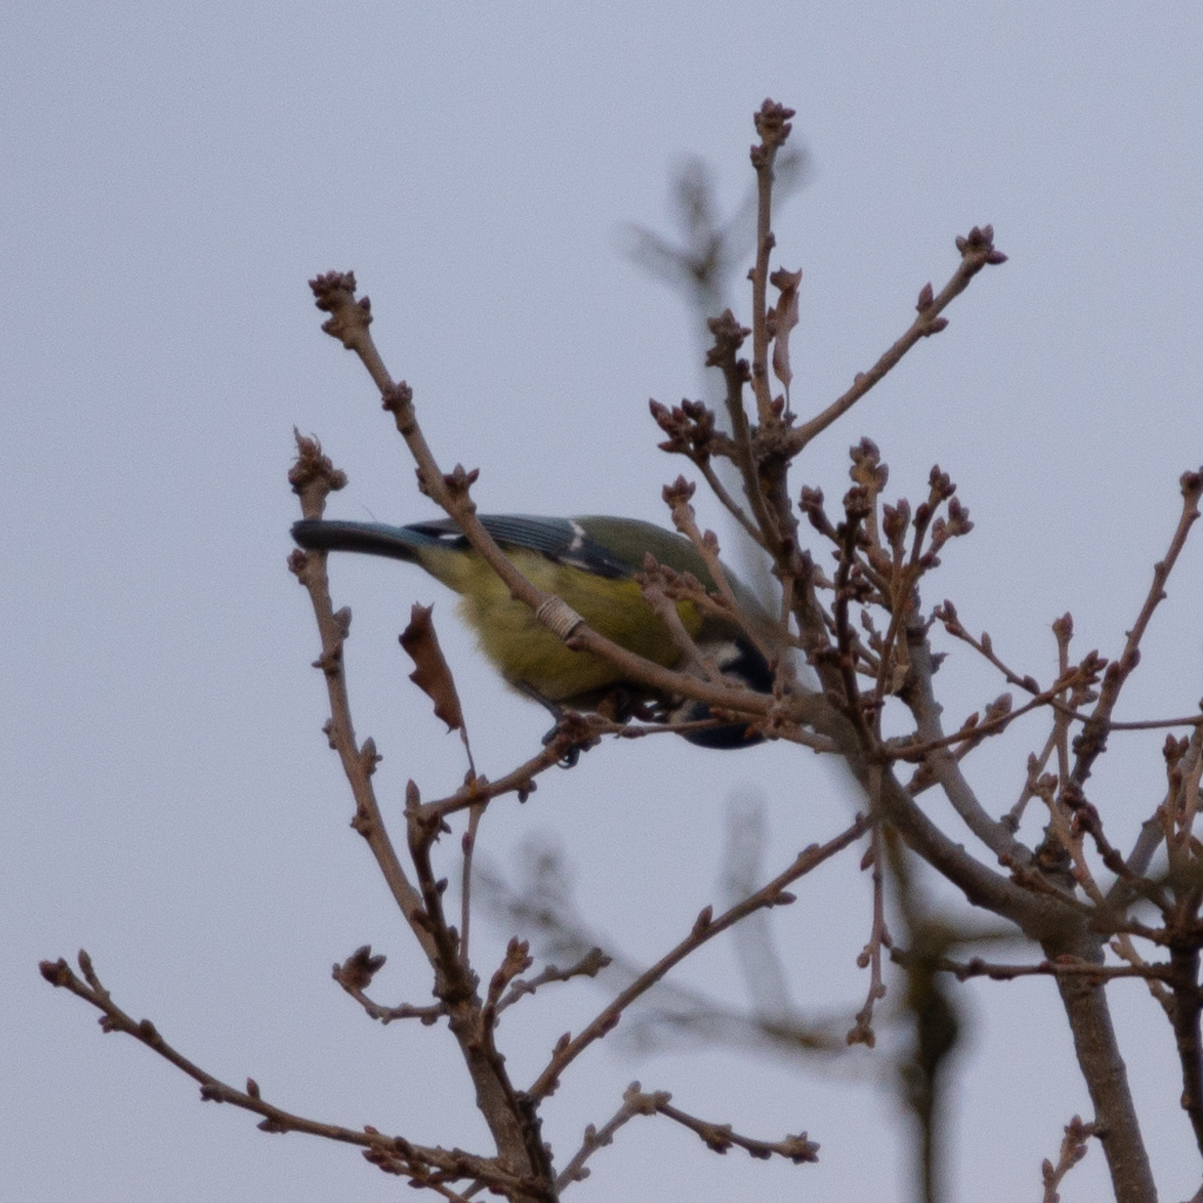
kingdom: Animalia
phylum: Chordata
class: Aves
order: Passeriformes
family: Paridae
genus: Cyanistes
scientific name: Cyanistes caeruleus
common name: Eurasian blue tit
